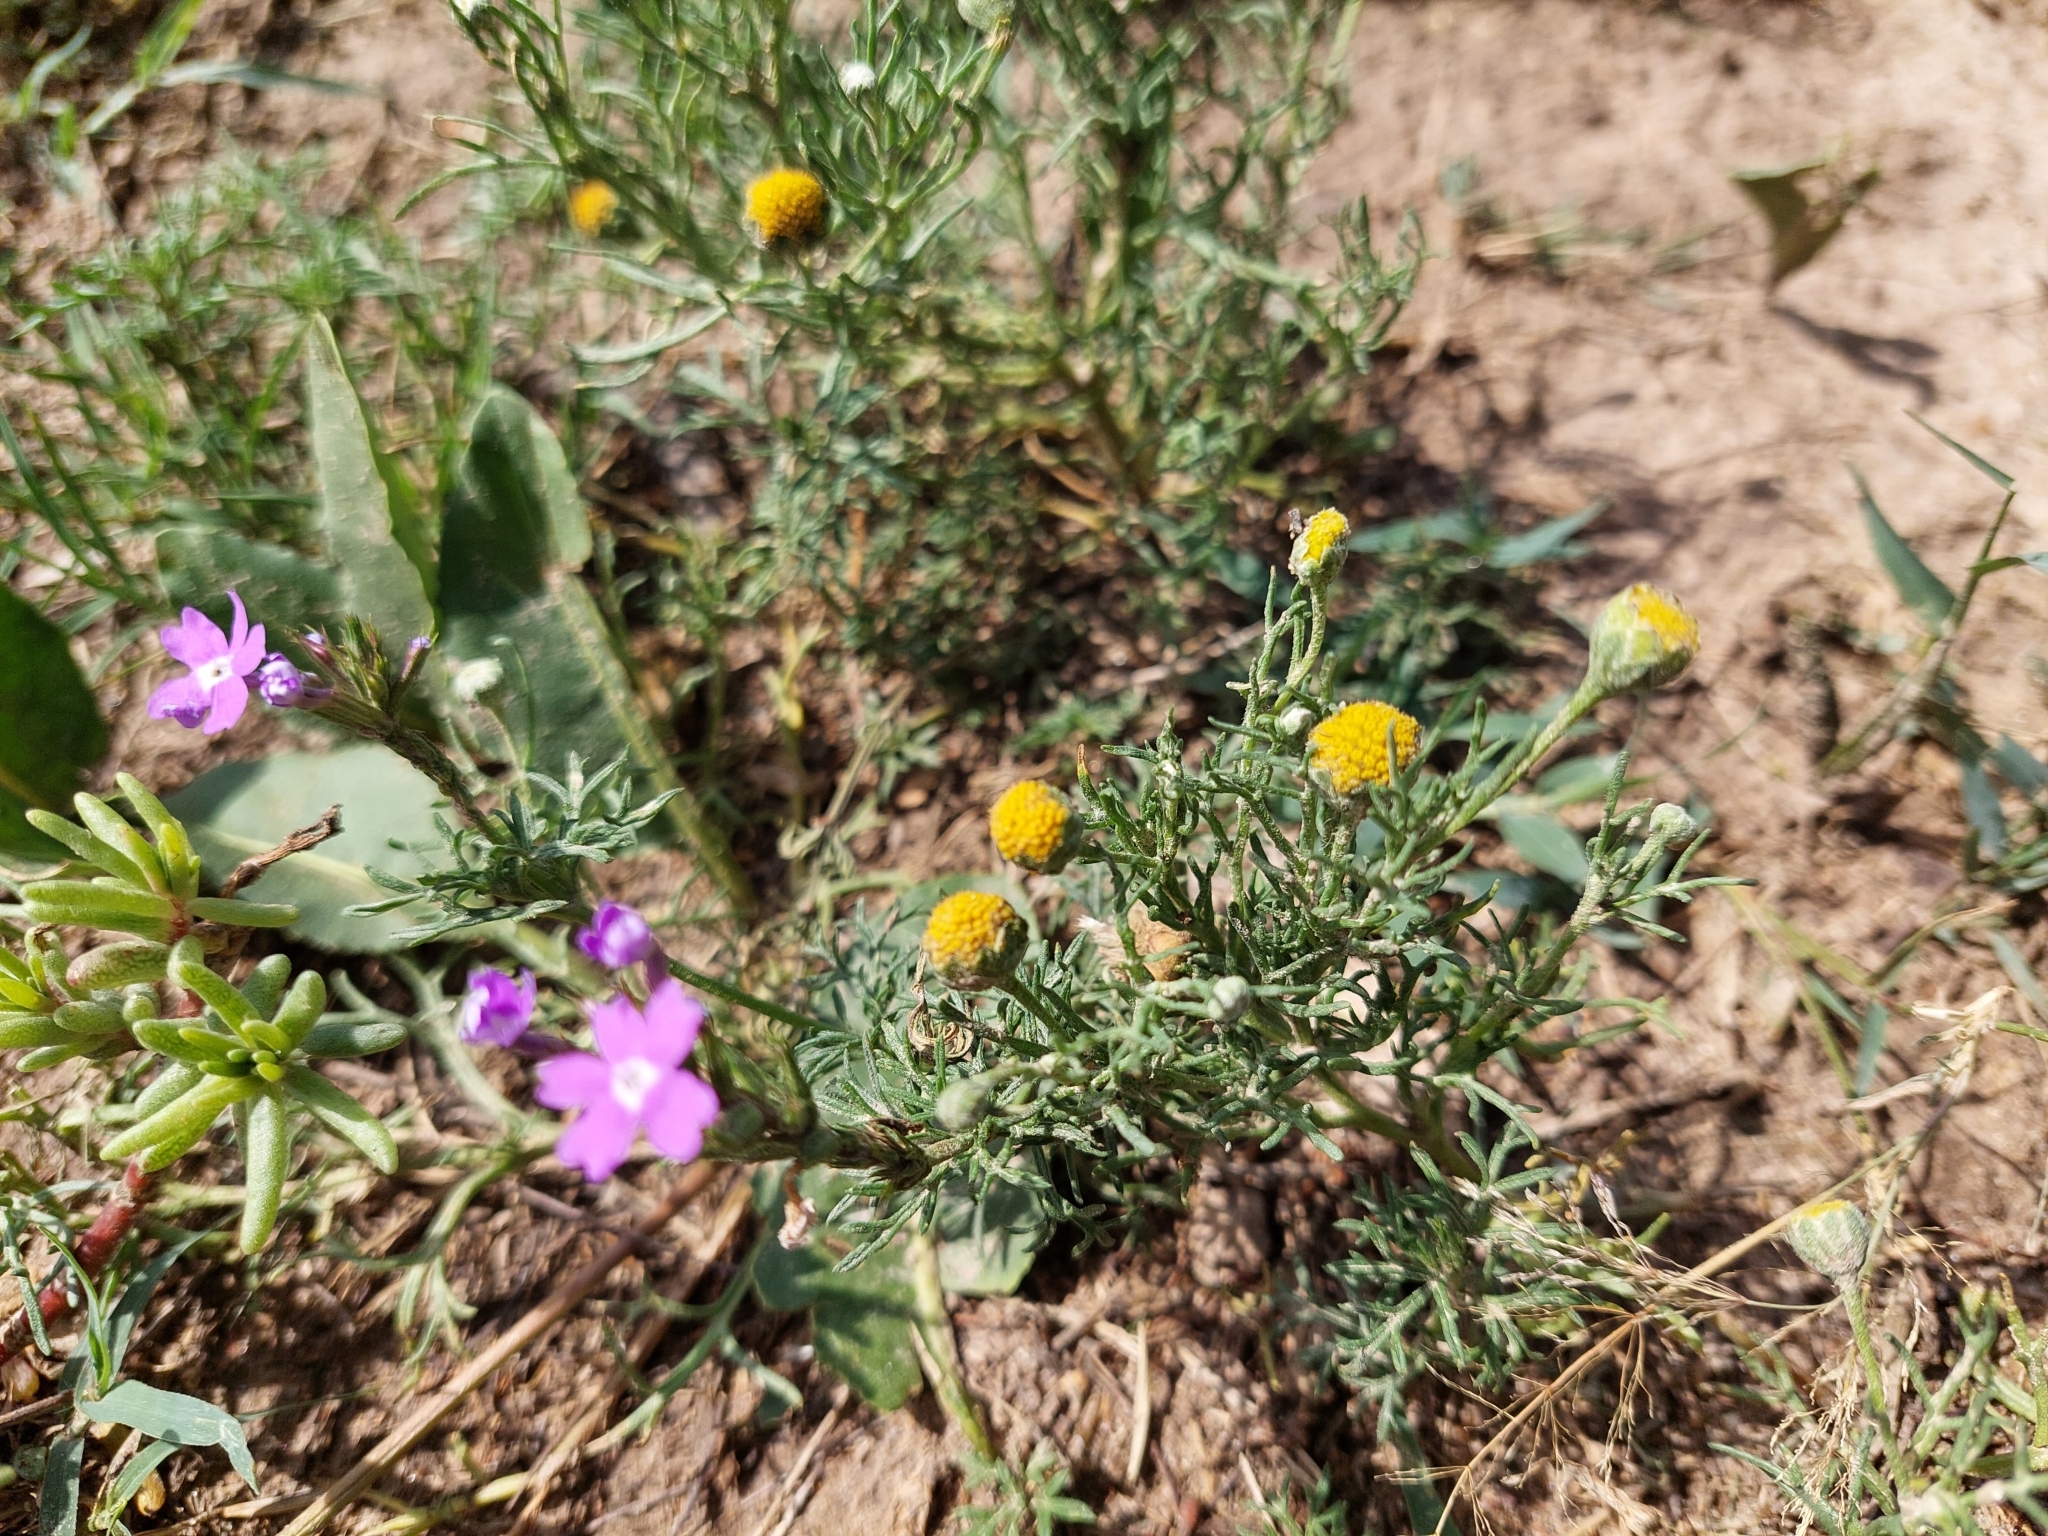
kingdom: Plantae
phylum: Tracheophyta
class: Magnoliopsida
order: Asterales
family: Asteraceae
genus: Hymenoxys
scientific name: Hymenoxys anthemoides
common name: South american rubberweed
